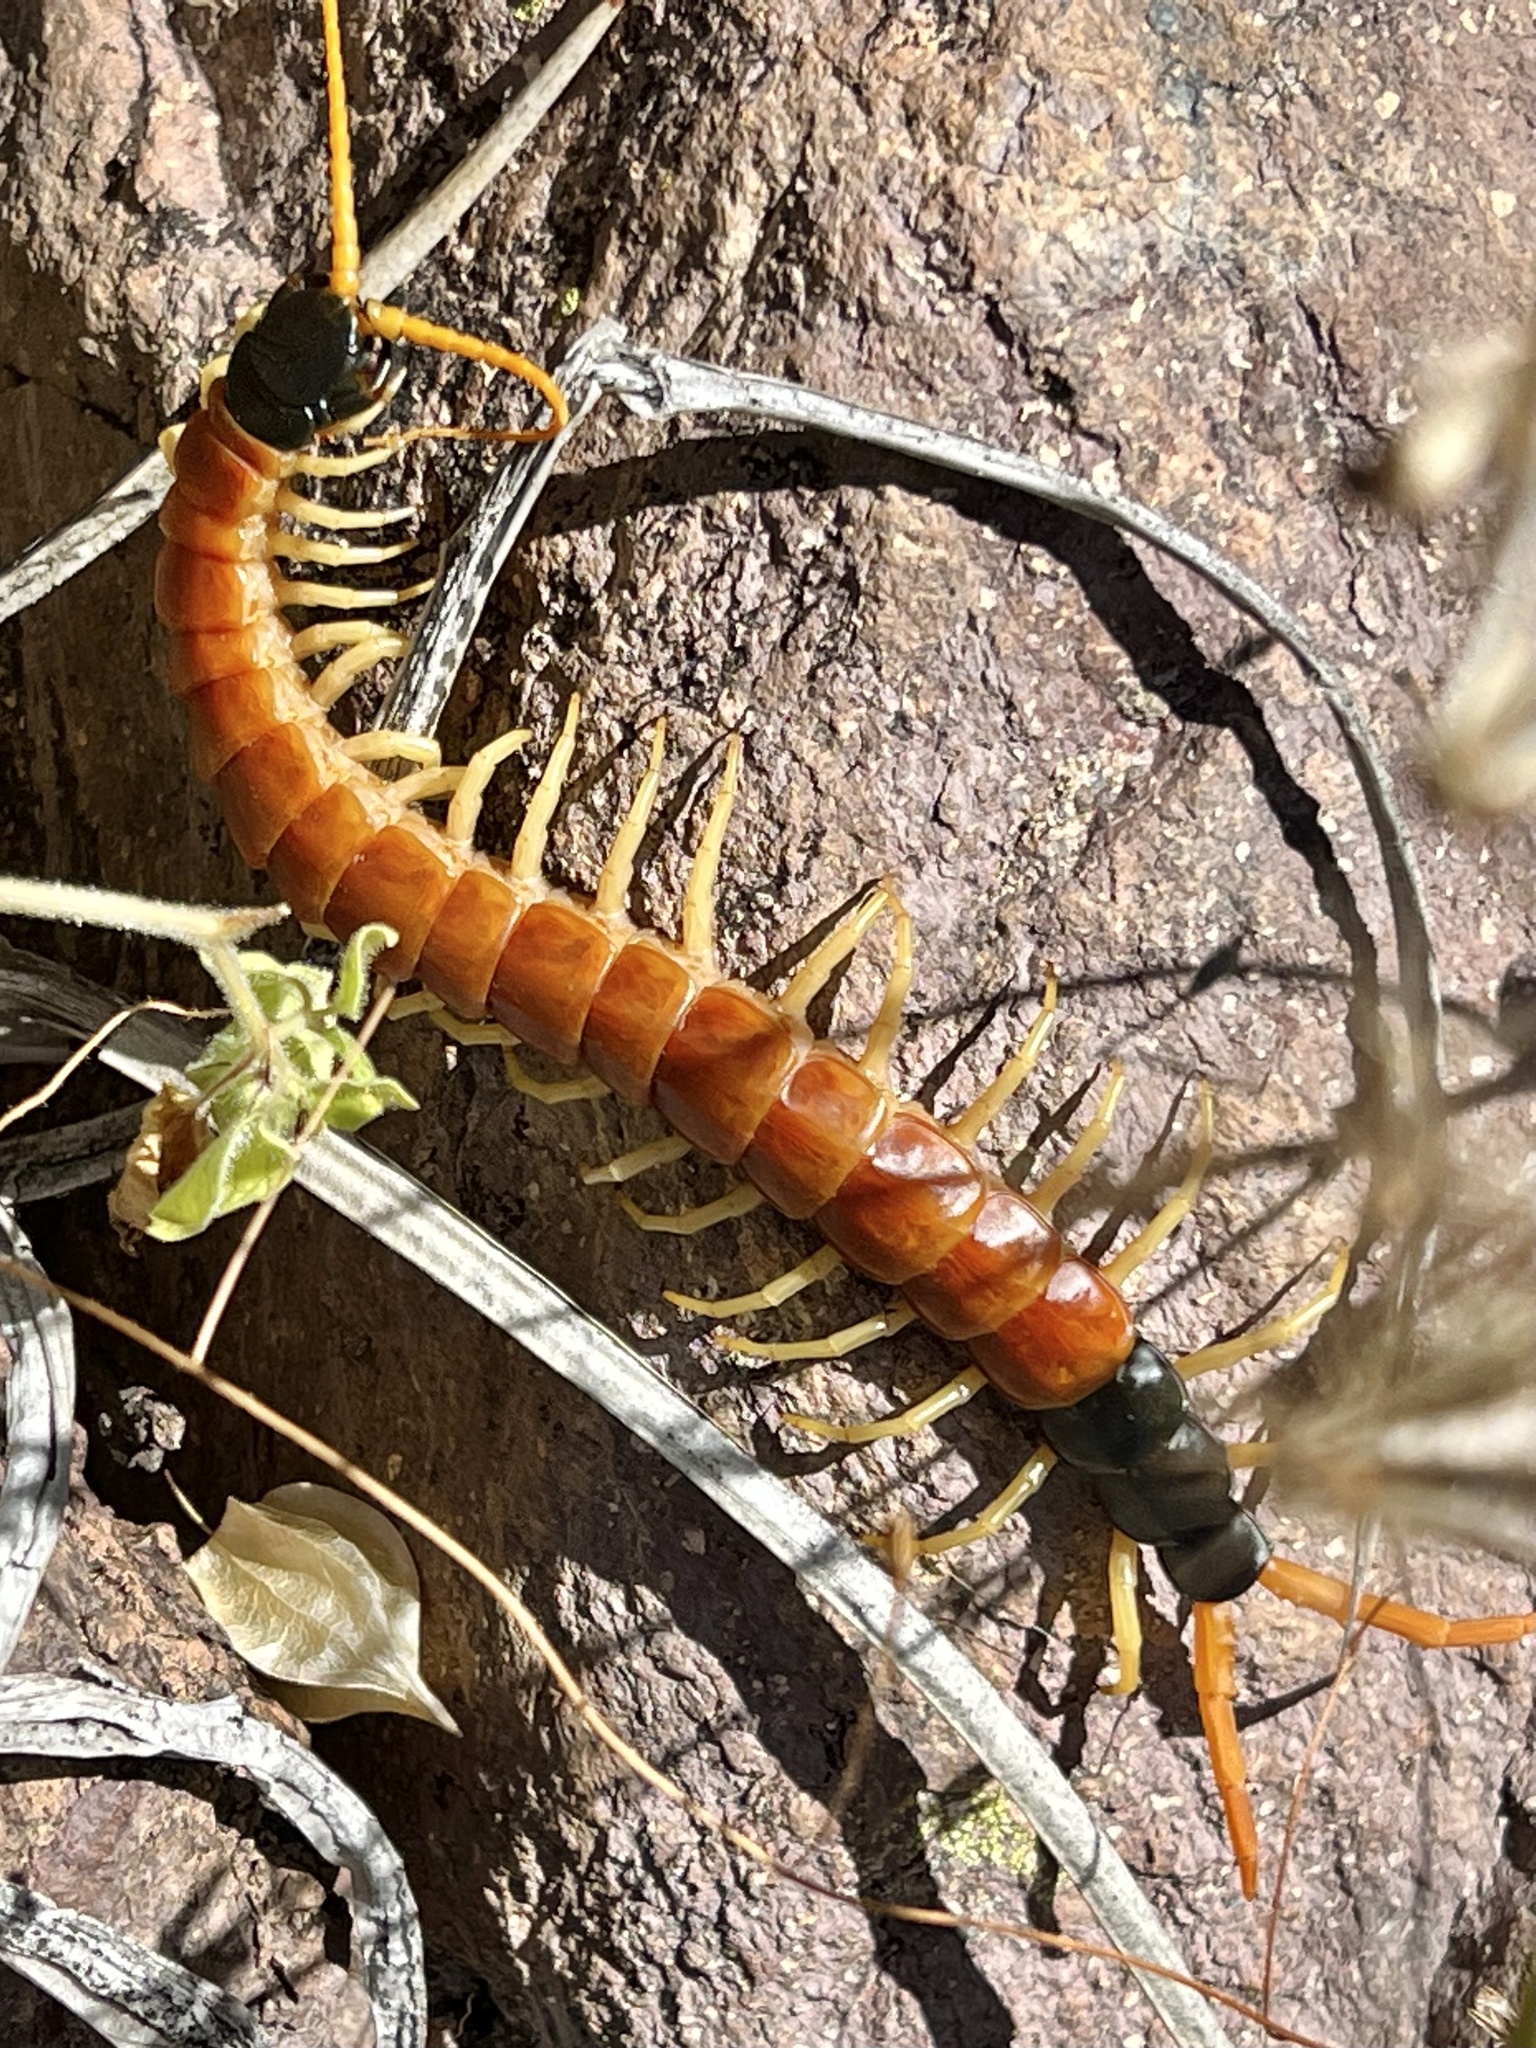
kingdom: Animalia
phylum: Arthropoda
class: Chilopoda
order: Scolopendromorpha
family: Scolopendridae
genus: Scolopendra
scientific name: Scolopendra heros
